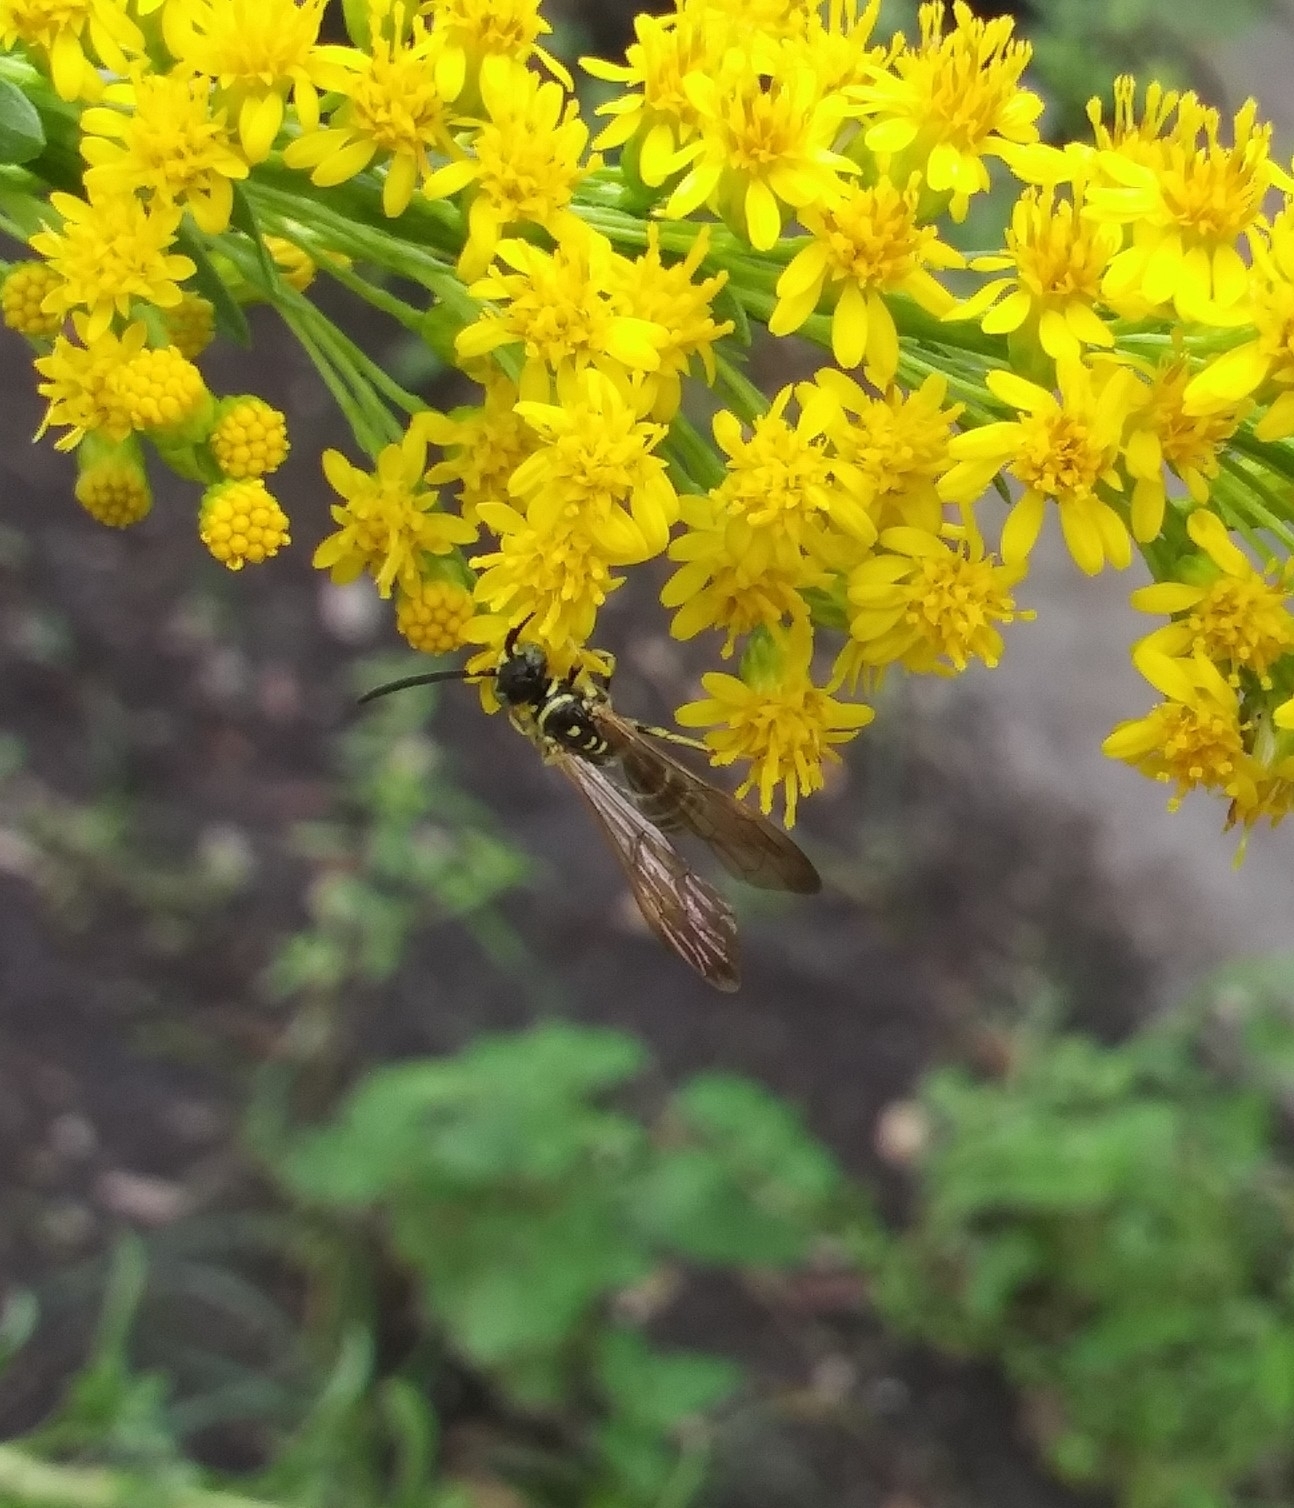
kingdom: Animalia
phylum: Arthropoda
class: Insecta
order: Hymenoptera
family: Tiphiidae
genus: Myzinum
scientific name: Myzinum
